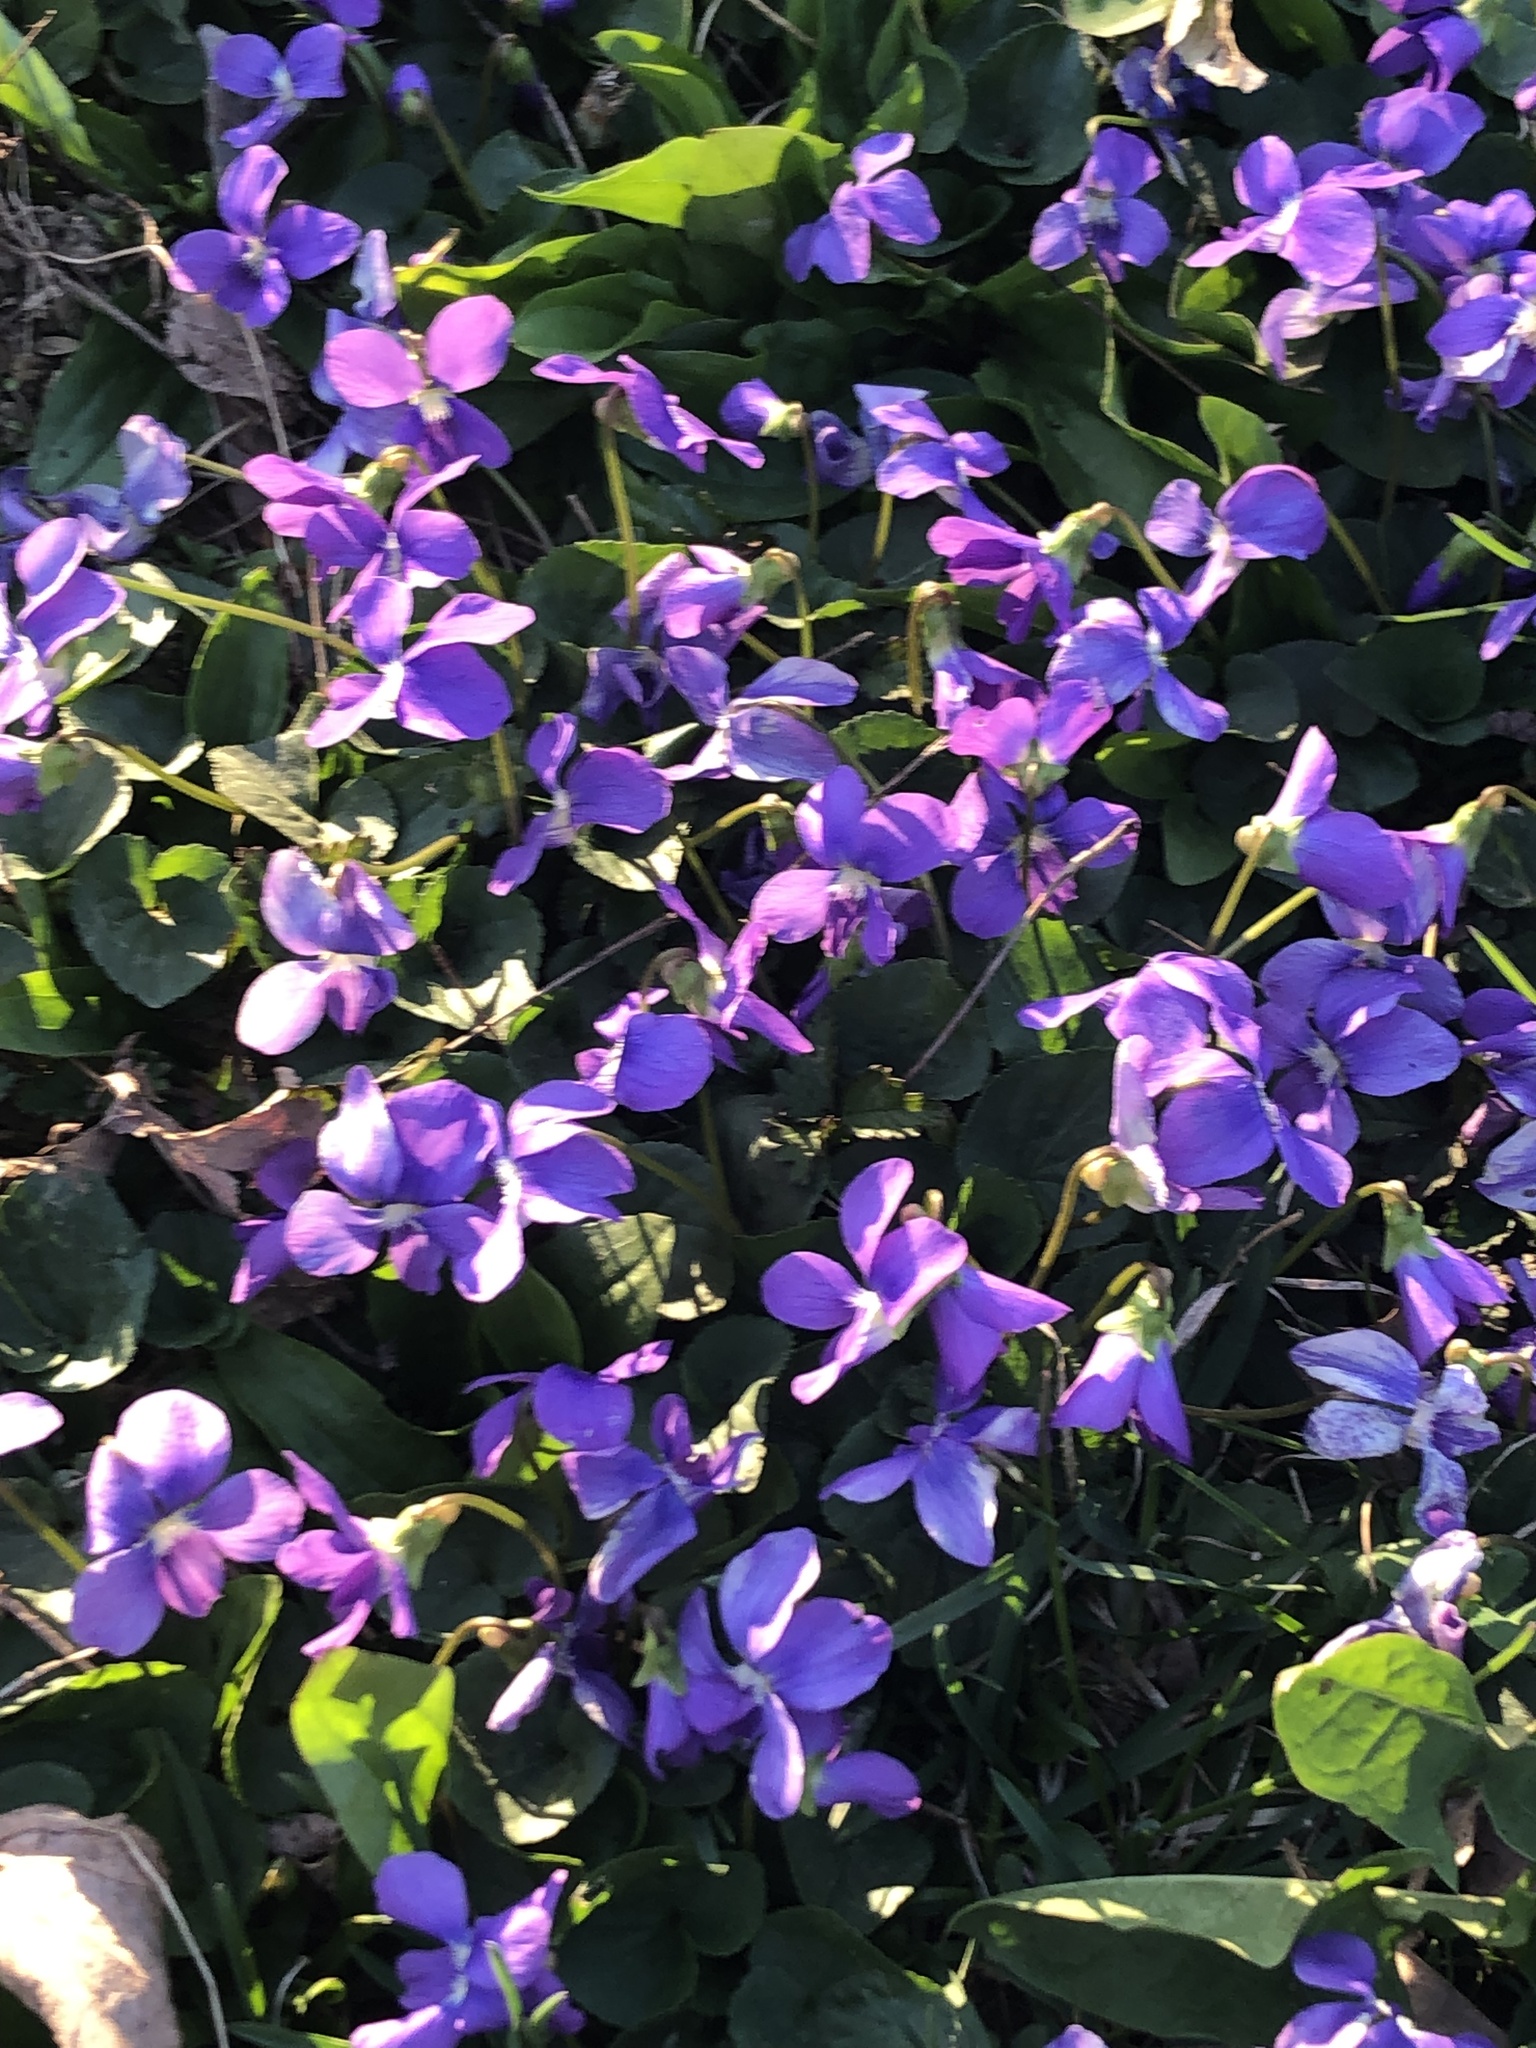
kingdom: Plantae
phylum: Tracheophyta
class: Magnoliopsida
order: Malpighiales
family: Violaceae
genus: Viola
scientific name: Viola sororia
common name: Dooryard violet
